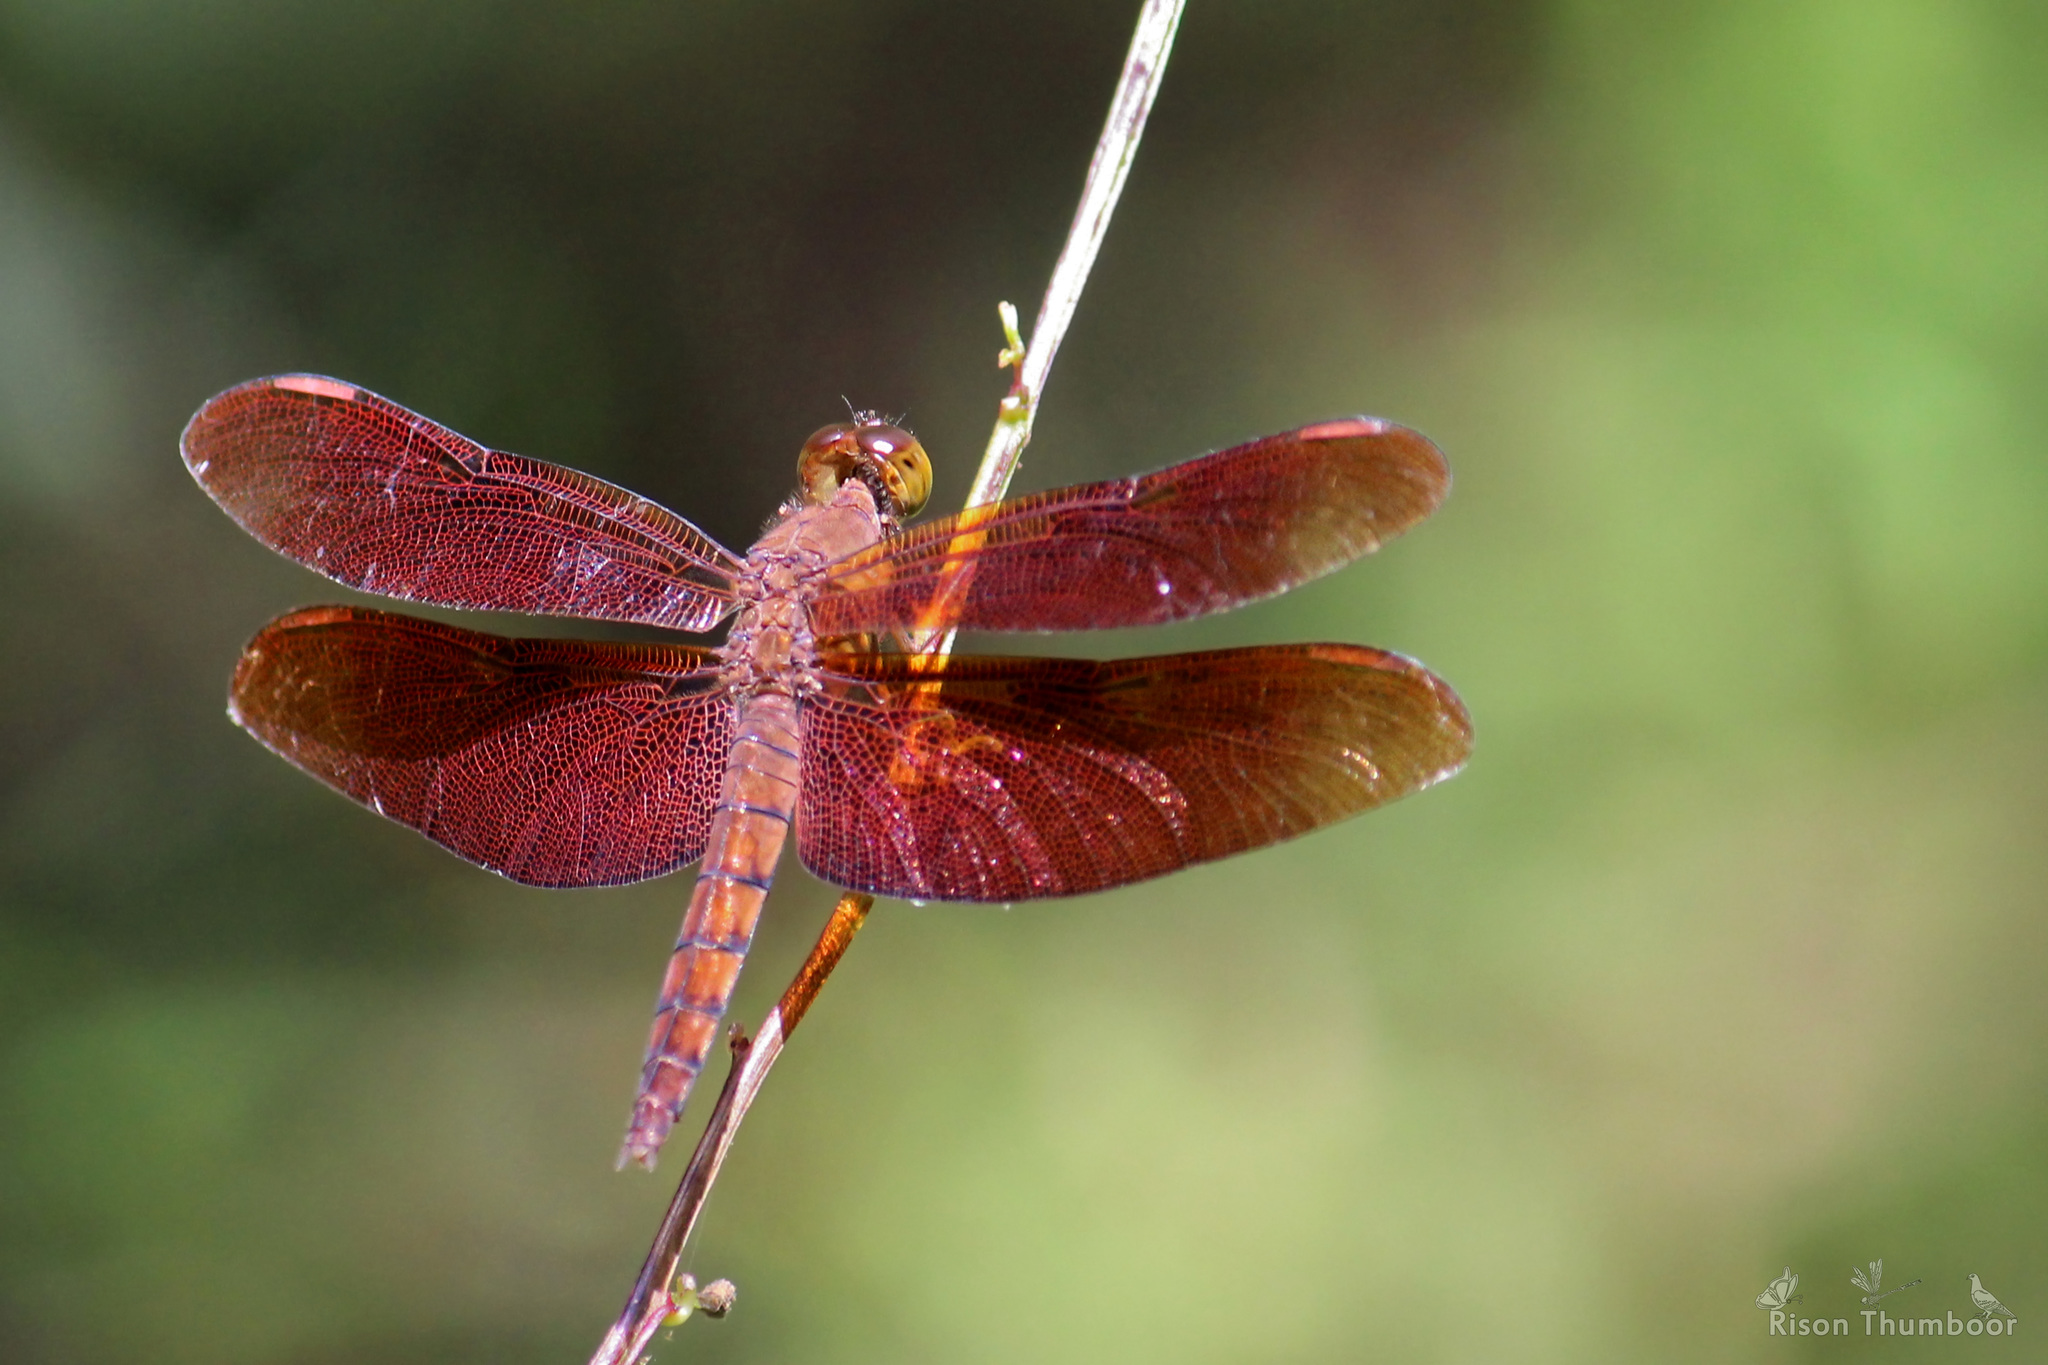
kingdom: Animalia
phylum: Arthropoda
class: Insecta
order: Odonata
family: Libellulidae
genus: Neurothemis
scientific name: Neurothemis fulvia
